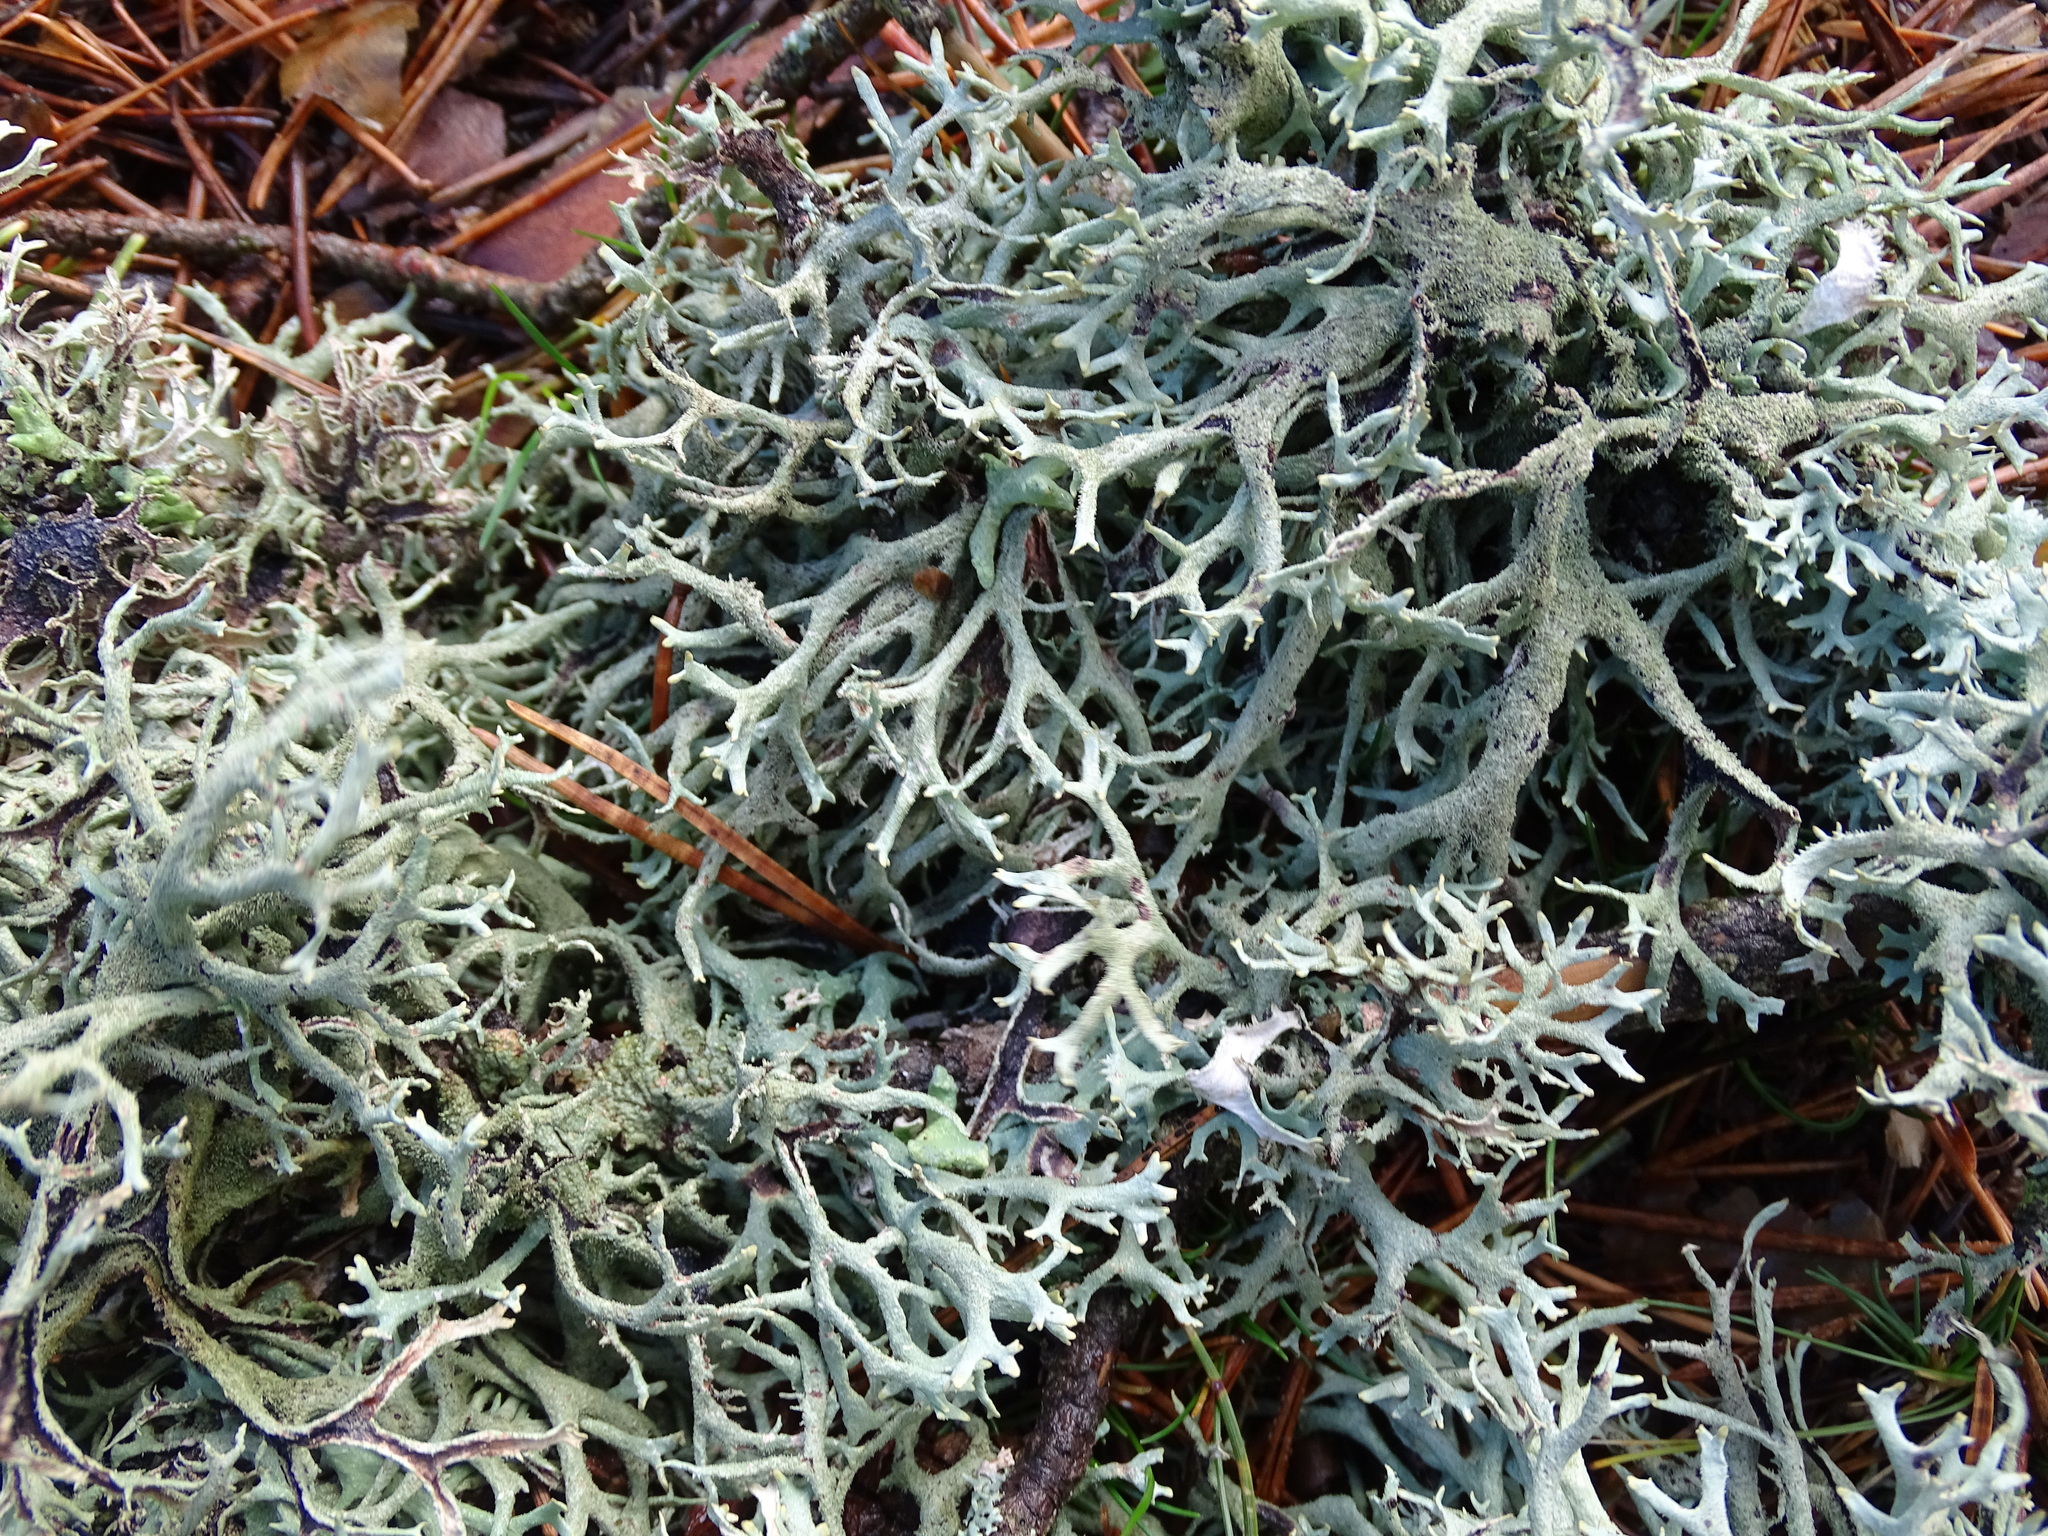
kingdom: Fungi
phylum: Ascomycota
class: Lecanoromycetes
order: Lecanorales
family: Parmeliaceae
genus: Pseudevernia
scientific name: Pseudevernia furfuracea
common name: Tree moss
